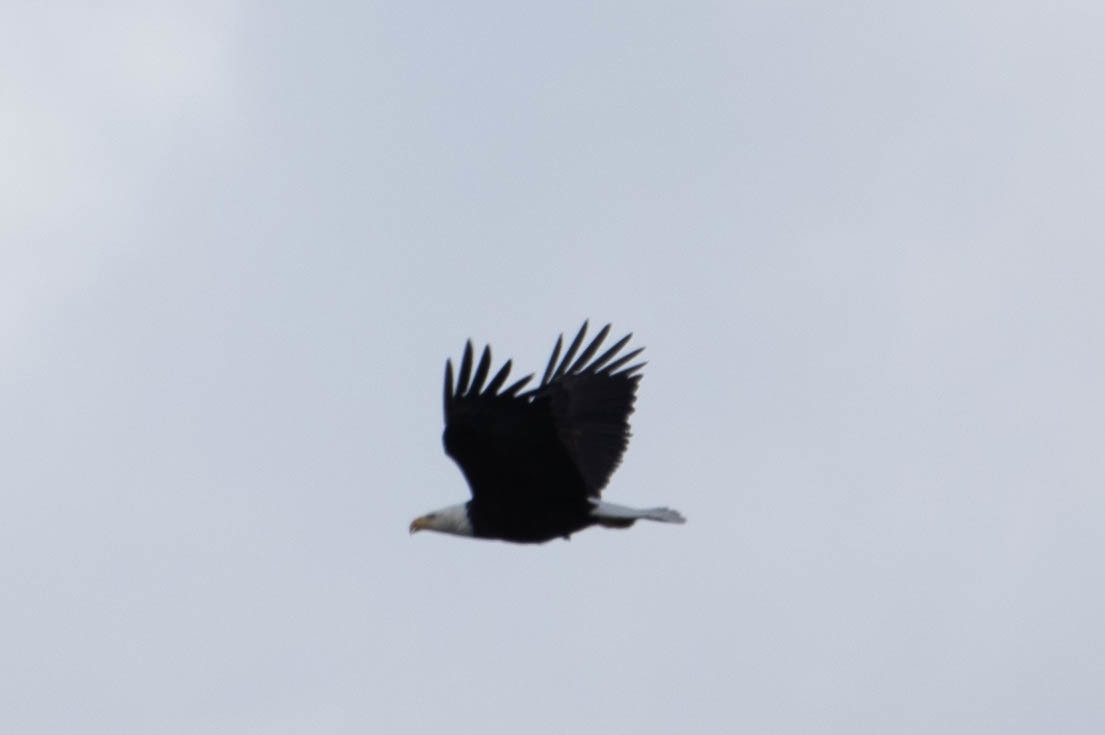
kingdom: Animalia
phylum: Chordata
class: Aves
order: Accipitriformes
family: Accipitridae
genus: Haliaeetus
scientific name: Haliaeetus leucocephalus
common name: Bald eagle
